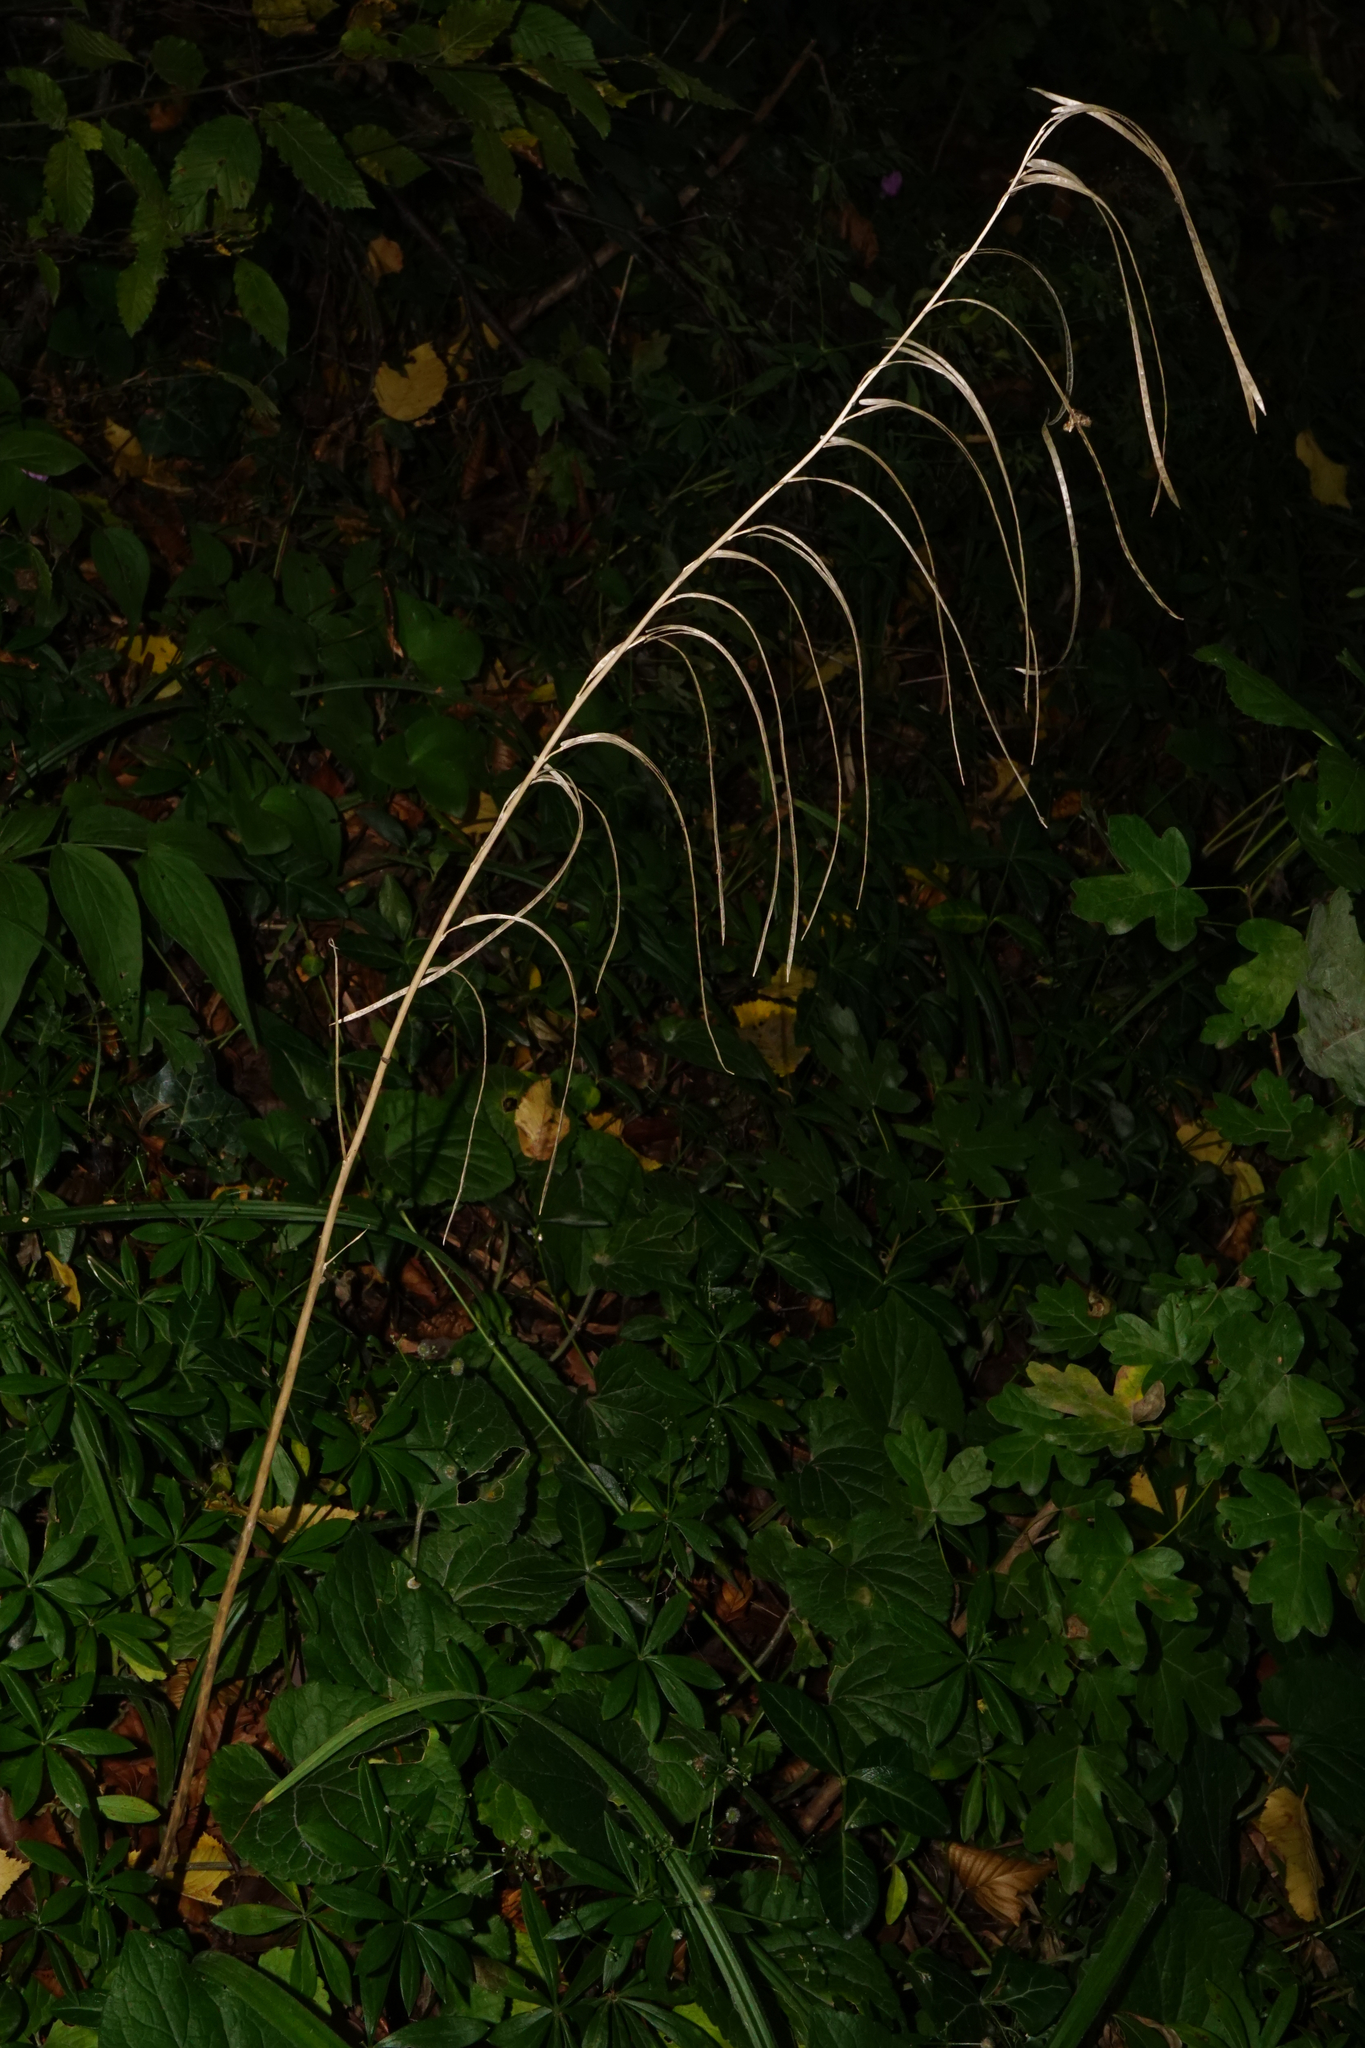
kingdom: Plantae
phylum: Tracheophyta
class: Magnoliopsida
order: Brassicales
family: Brassicaceae
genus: Pseudoturritis
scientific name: Pseudoturritis turrita
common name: Tower cress
